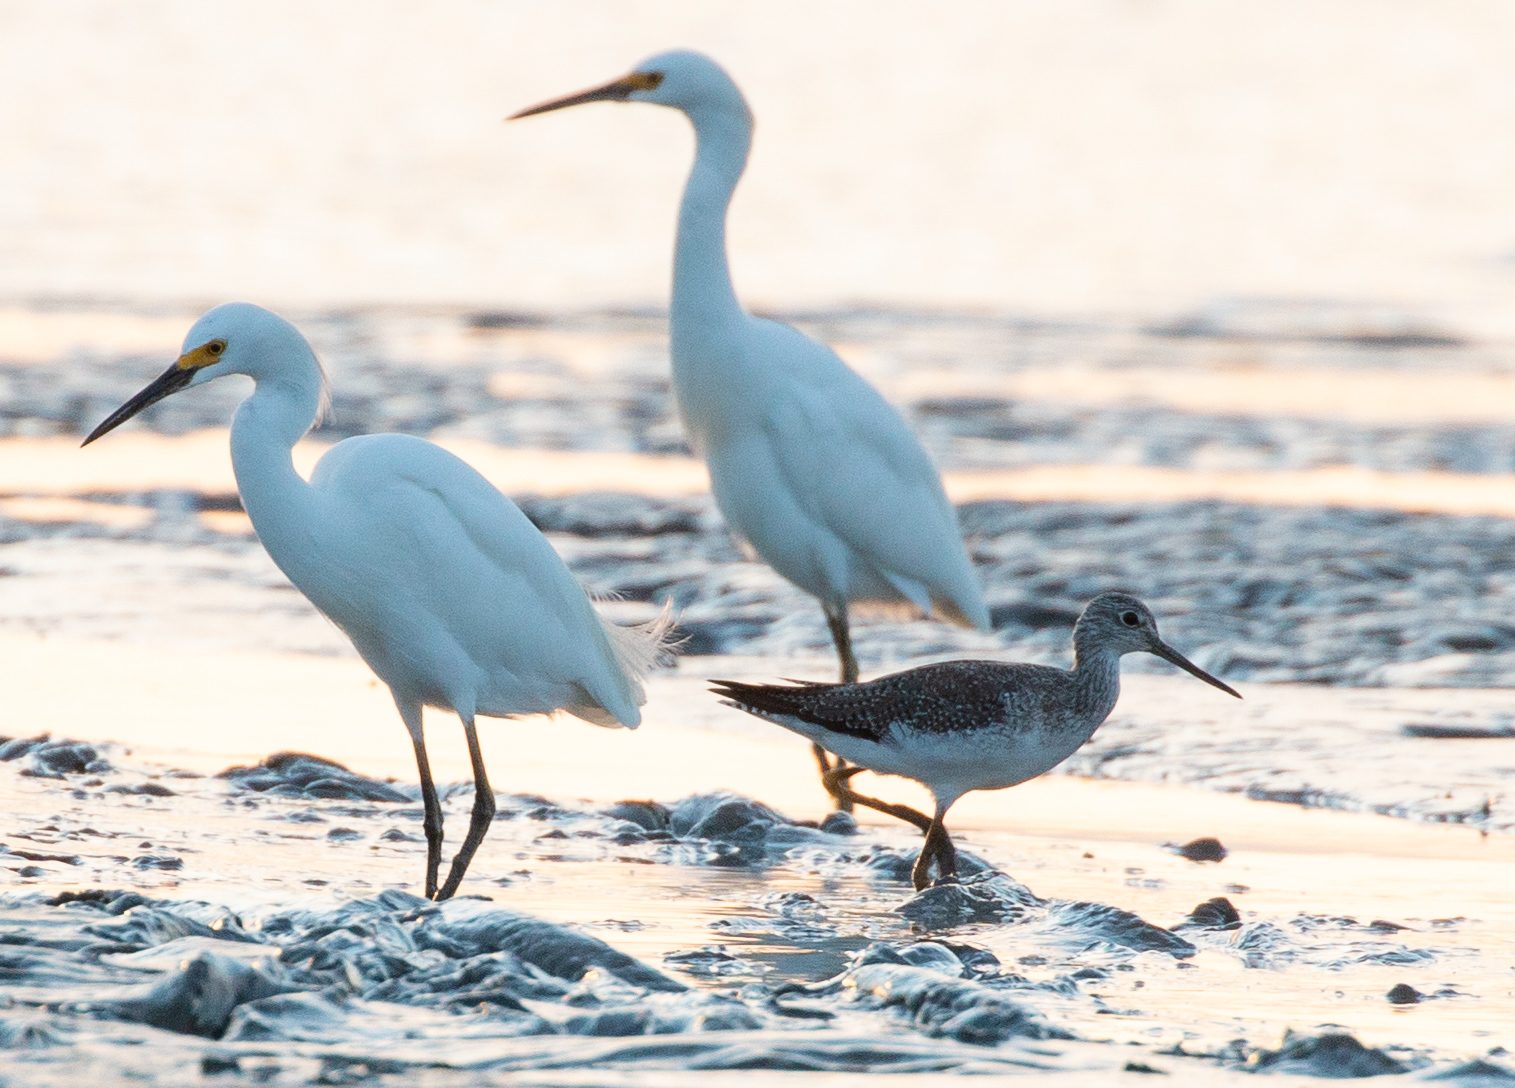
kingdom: Animalia
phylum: Chordata
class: Aves
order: Charadriiformes
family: Scolopacidae
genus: Tringa
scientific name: Tringa melanoleuca
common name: Greater yellowlegs
